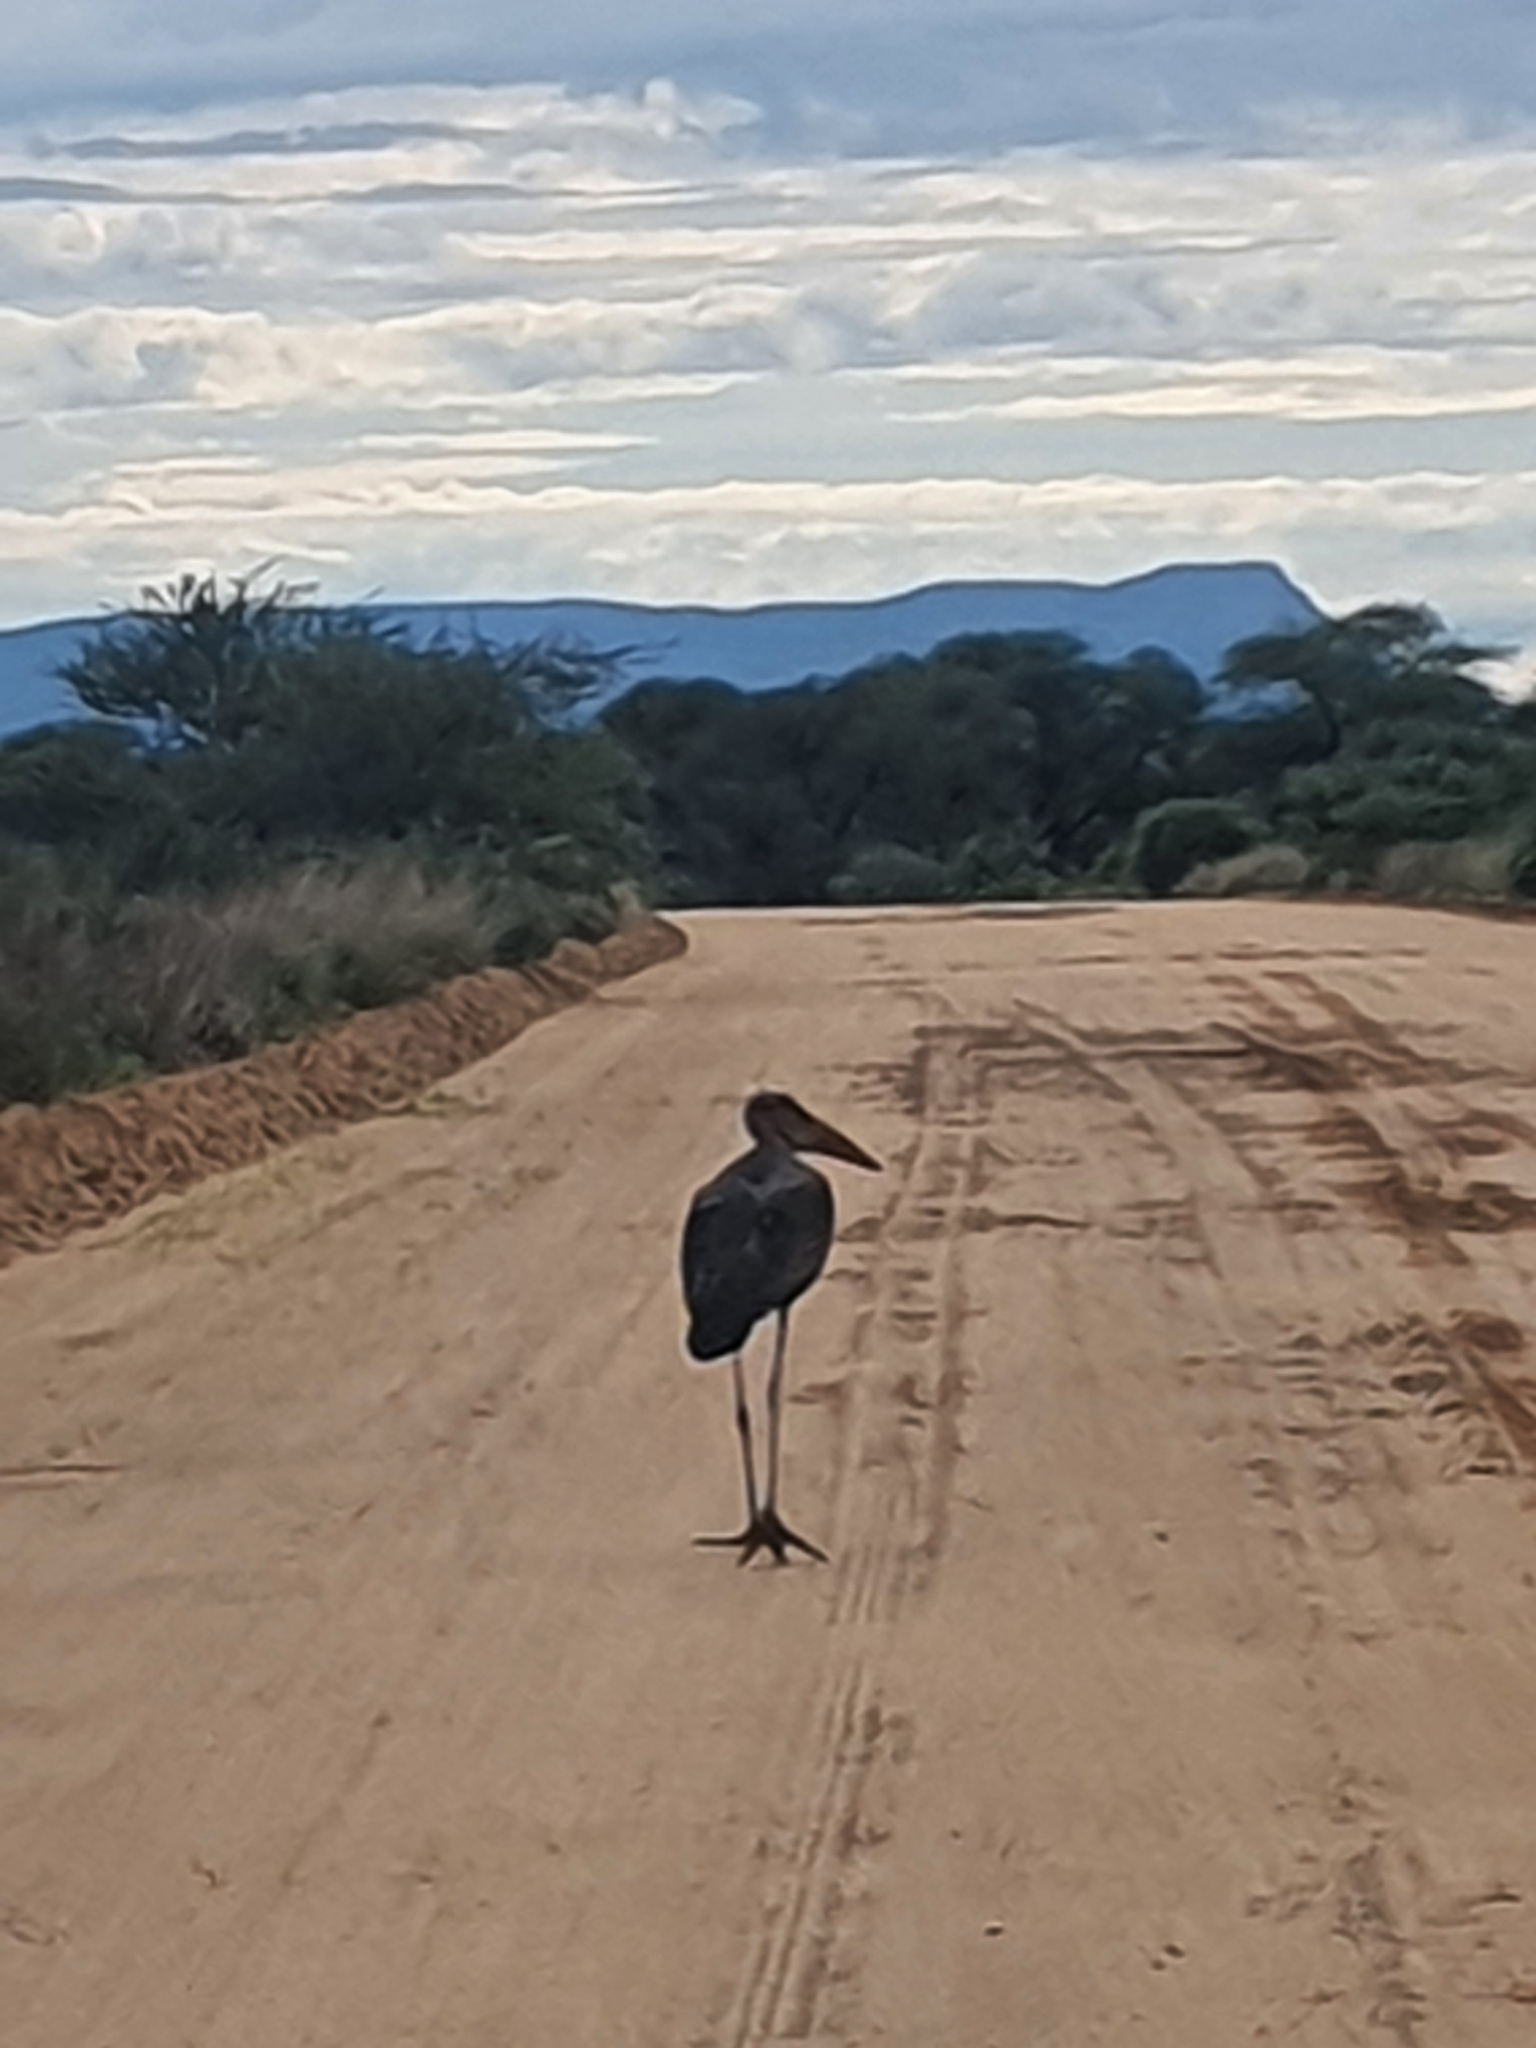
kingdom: Animalia
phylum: Chordata
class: Aves
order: Ciconiiformes
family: Ciconiidae
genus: Leptoptilos
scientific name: Leptoptilos crumenifer
